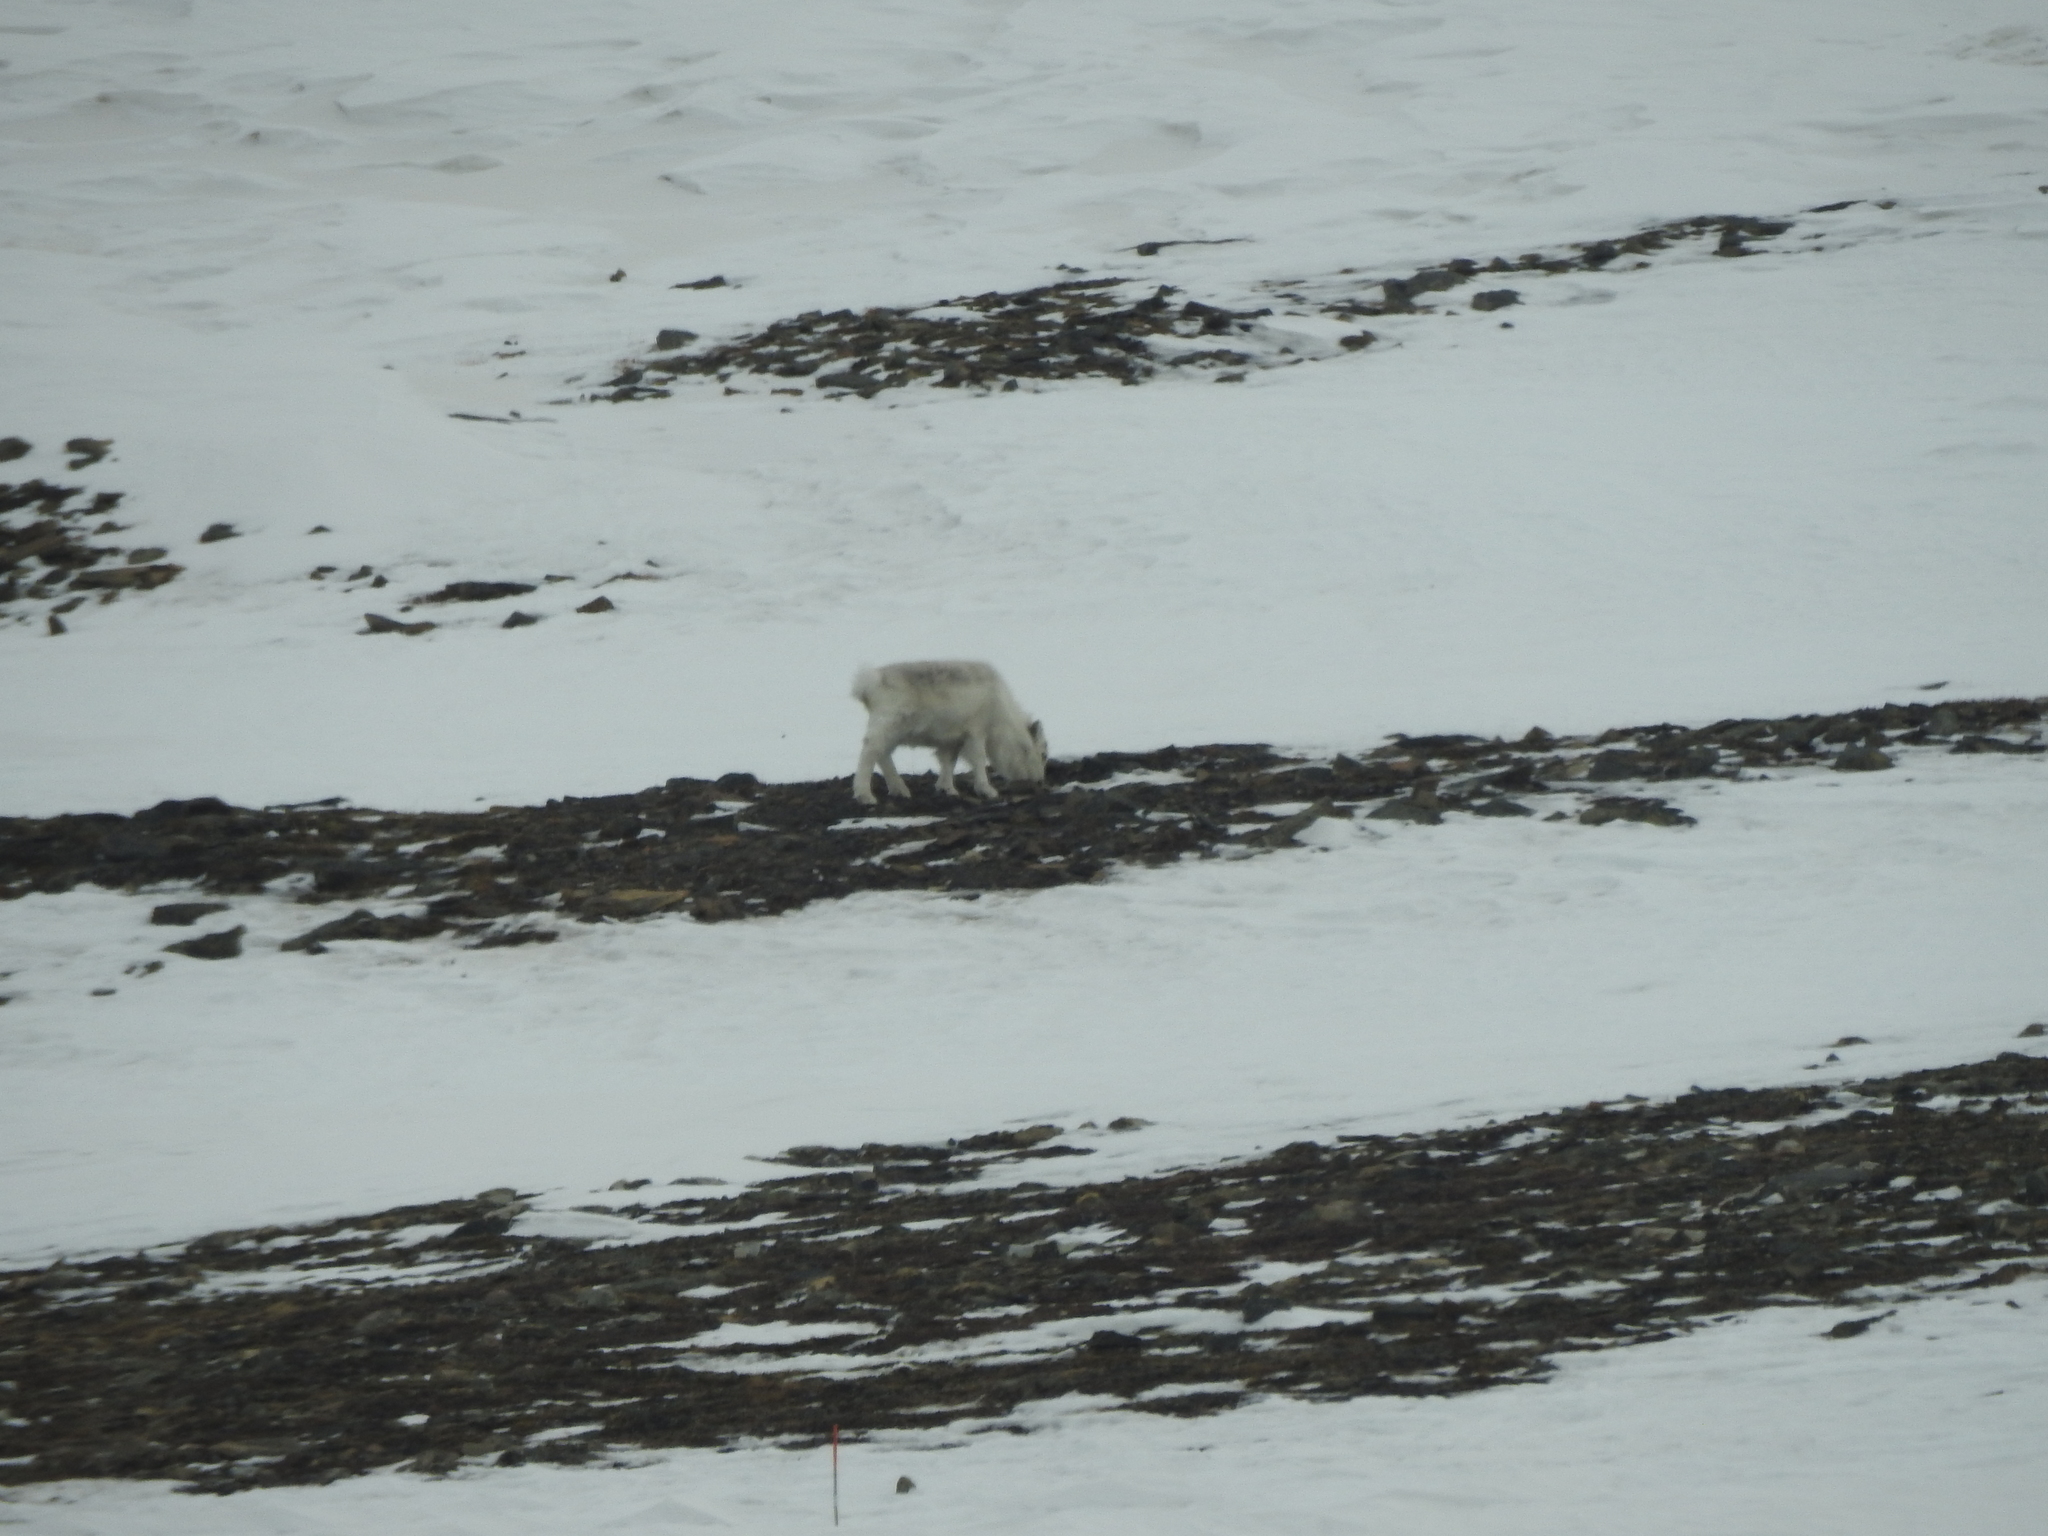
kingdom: Animalia
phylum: Chordata
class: Mammalia
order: Artiodactyla
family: Cervidae
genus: Rangifer
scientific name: Rangifer tarandus
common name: Reindeer
